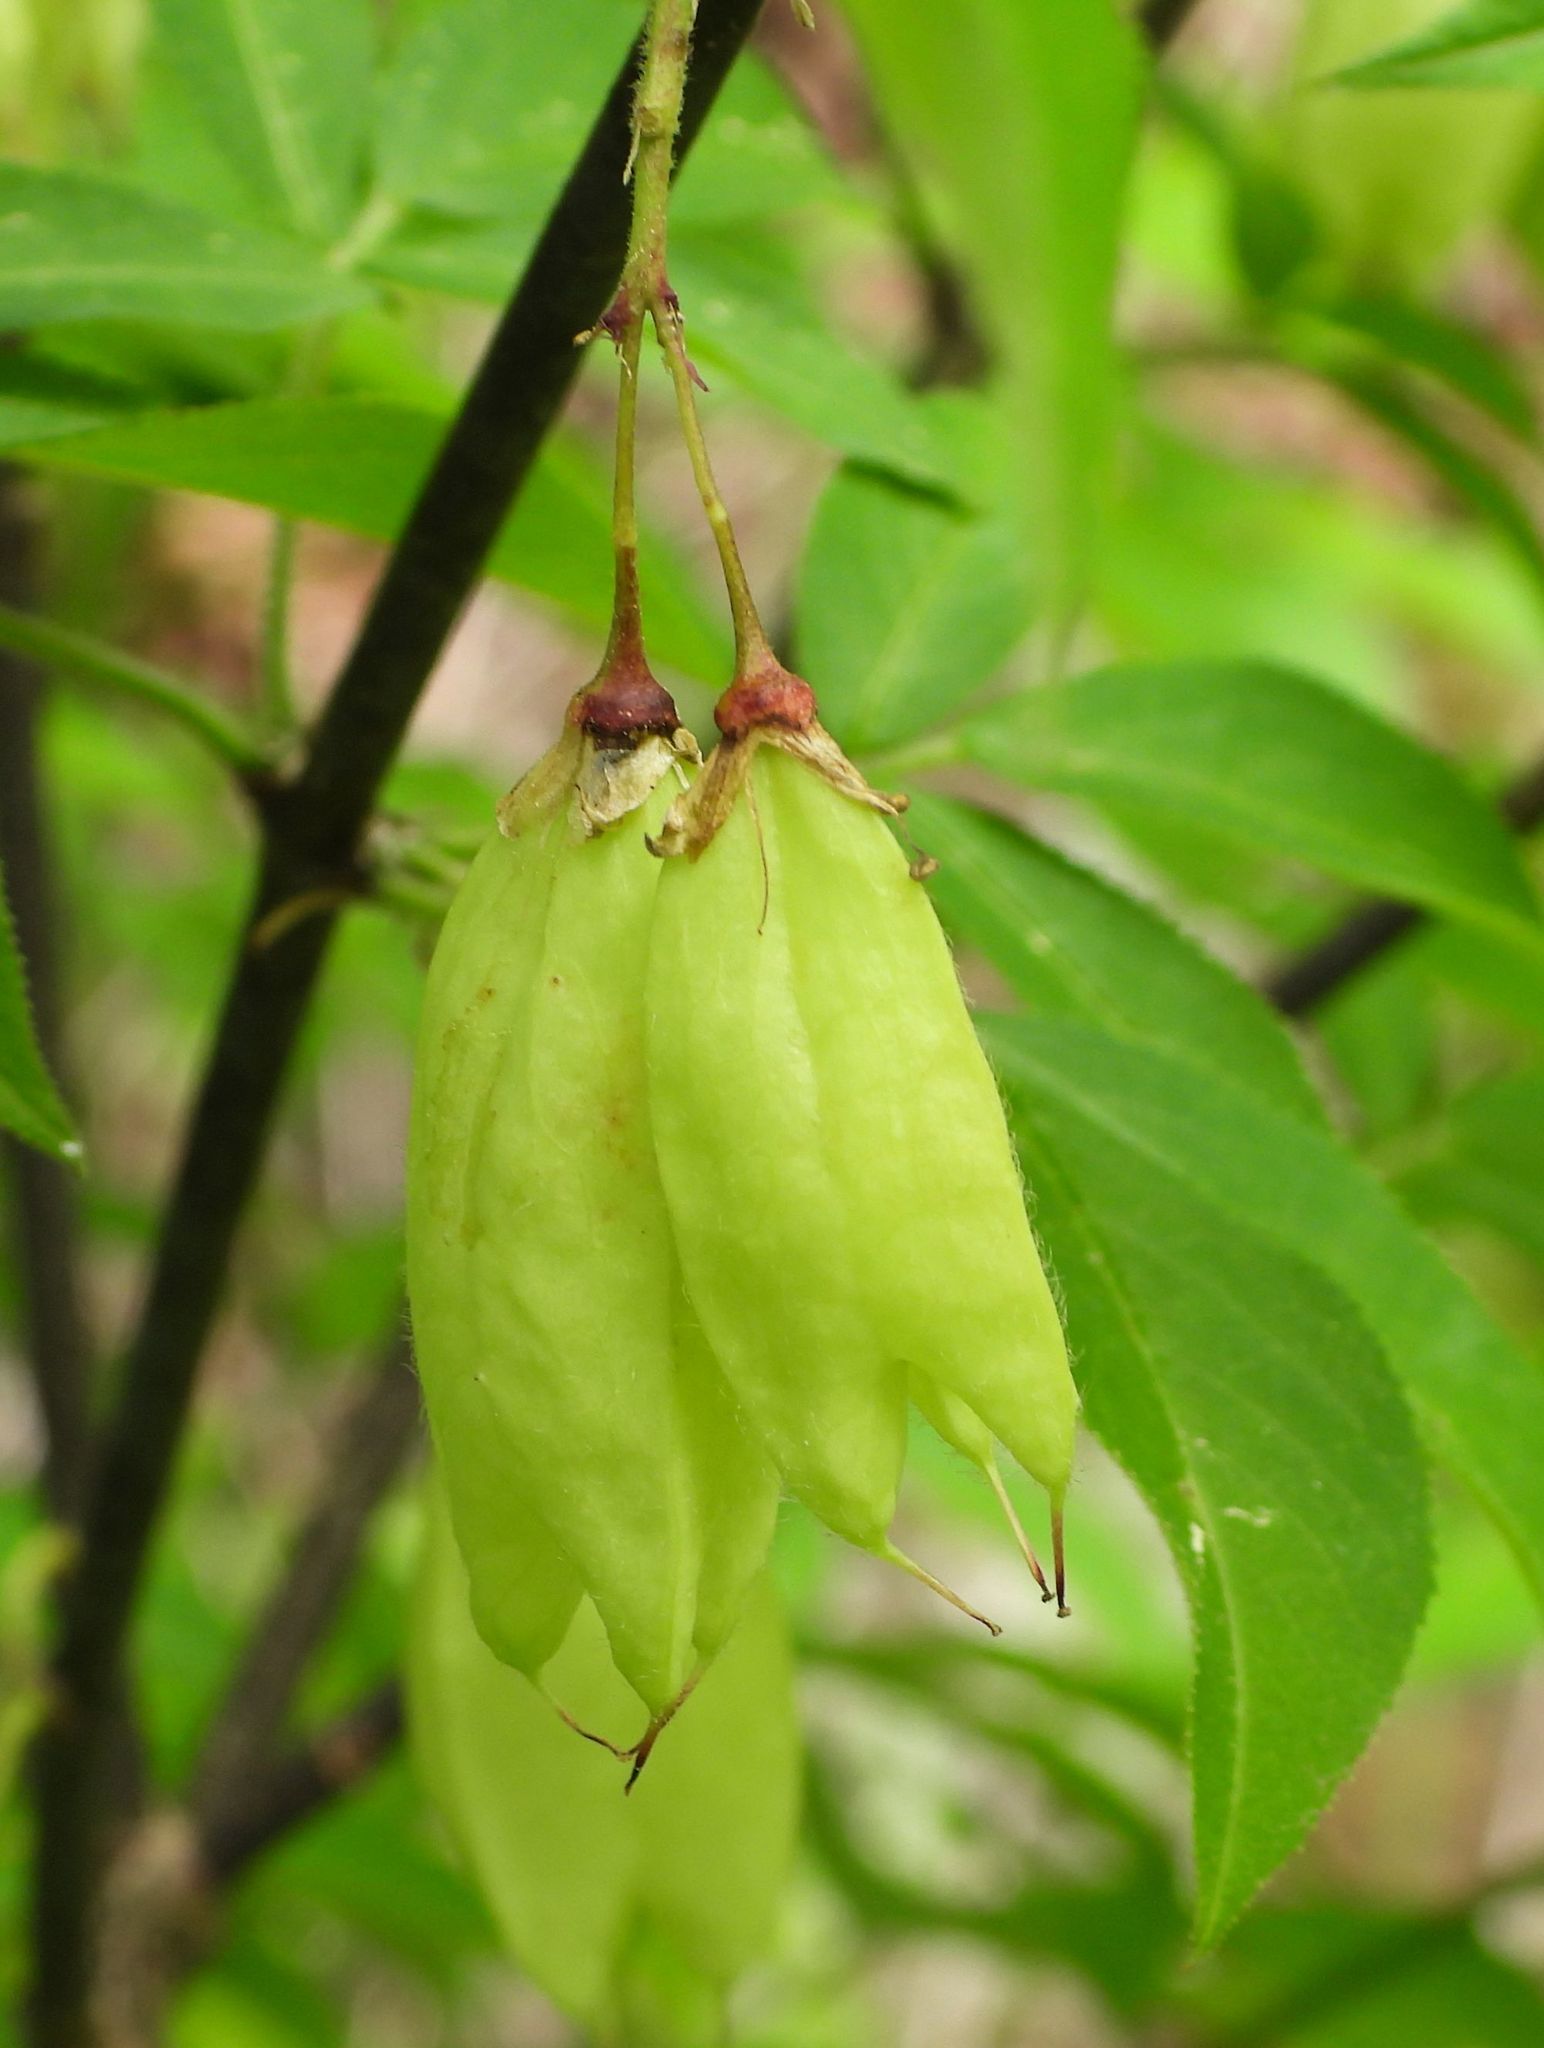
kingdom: Plantae
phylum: Tracheophyta
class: Magnoliopsida
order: Crossosomatales
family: Staphyleaceae
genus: Staphylea
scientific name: Staphylea trifolia
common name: American bladdernut
